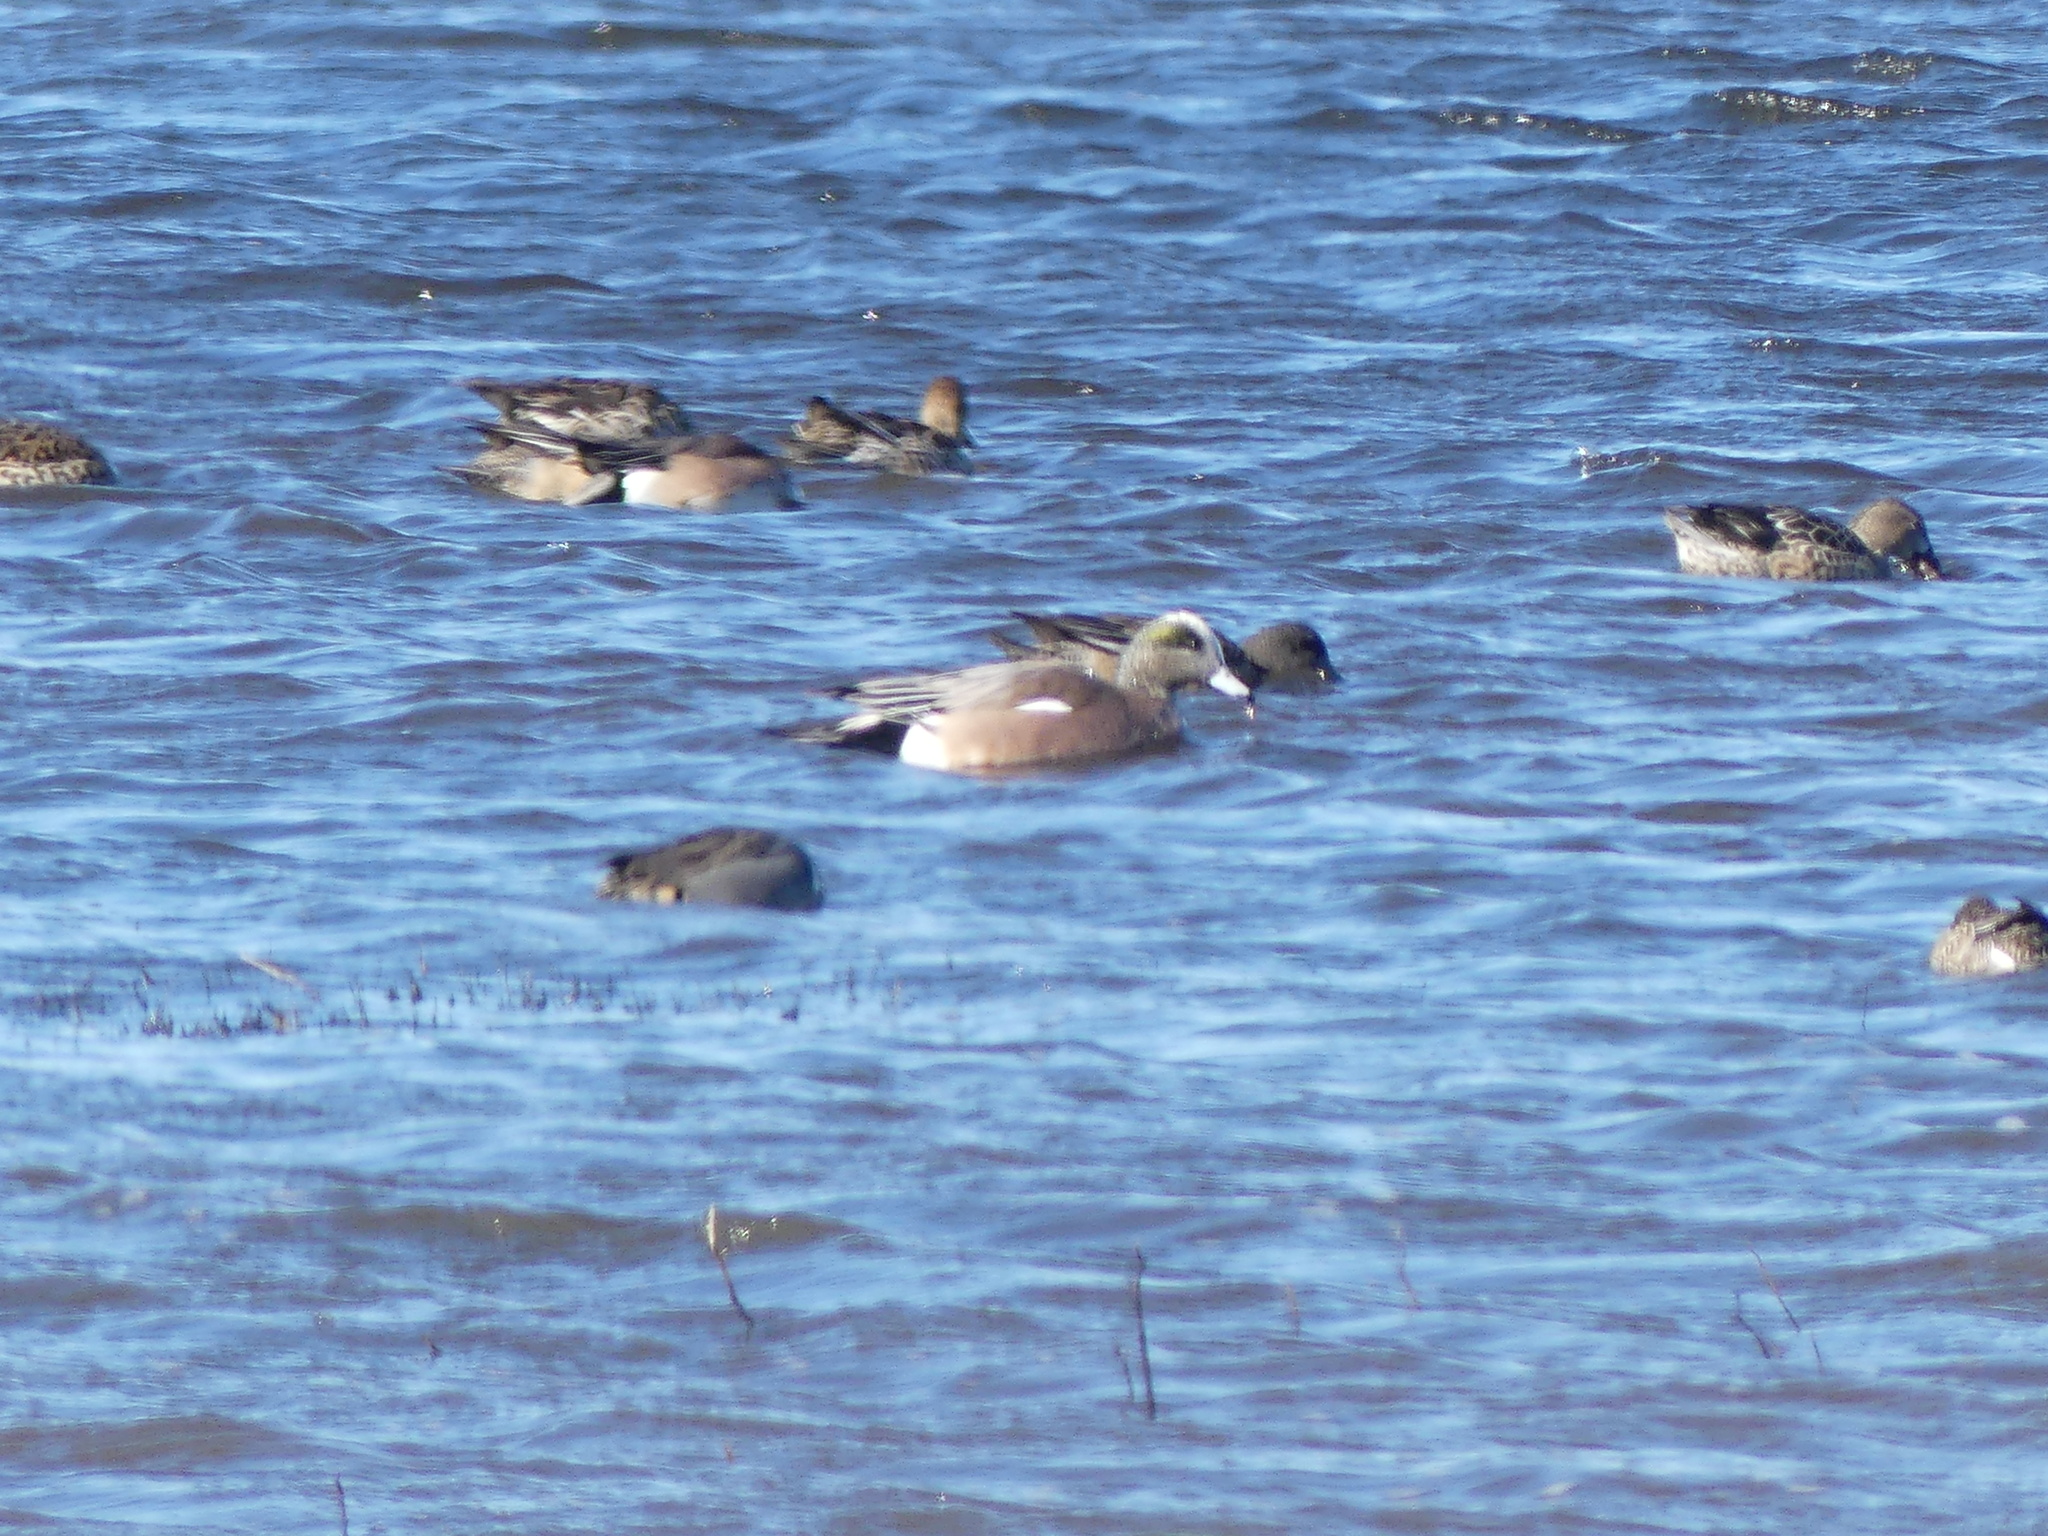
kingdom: Animalia
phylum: Chordata
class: Aves
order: Anseriformes
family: Anatidae
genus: Mareca
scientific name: Mareca americana
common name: American wigeon
